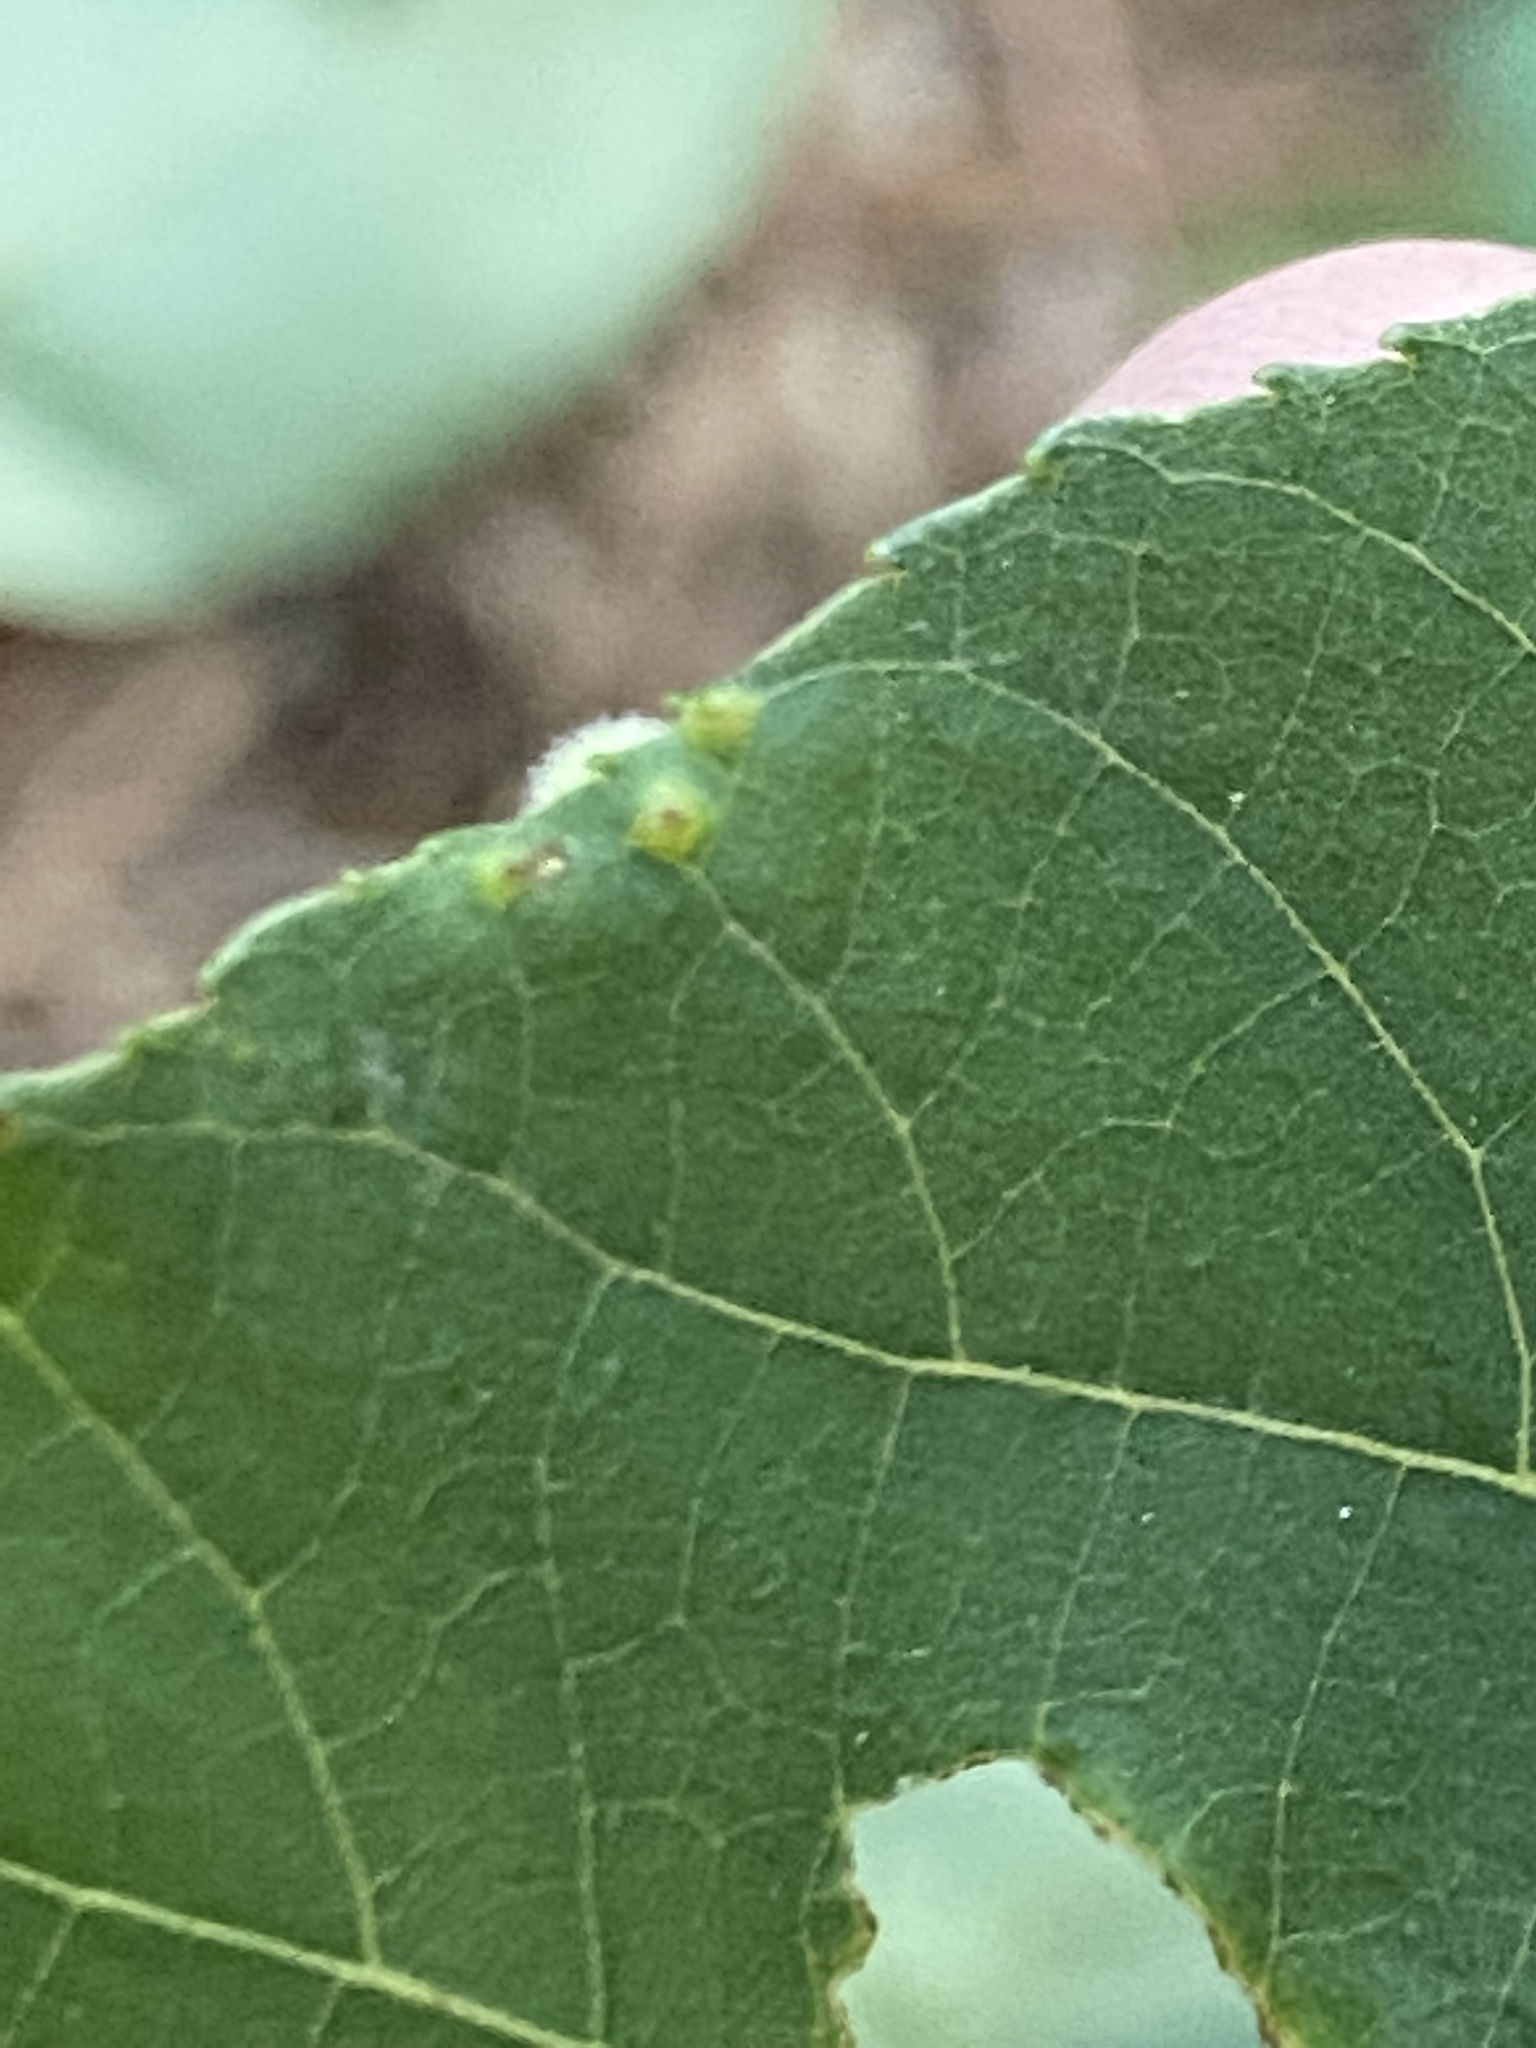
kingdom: Animalia
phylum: Arthropoda
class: Insecta
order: Diptera
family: Cecidomyiidae
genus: Caryomyia
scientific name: Caryomyia thompsoni
